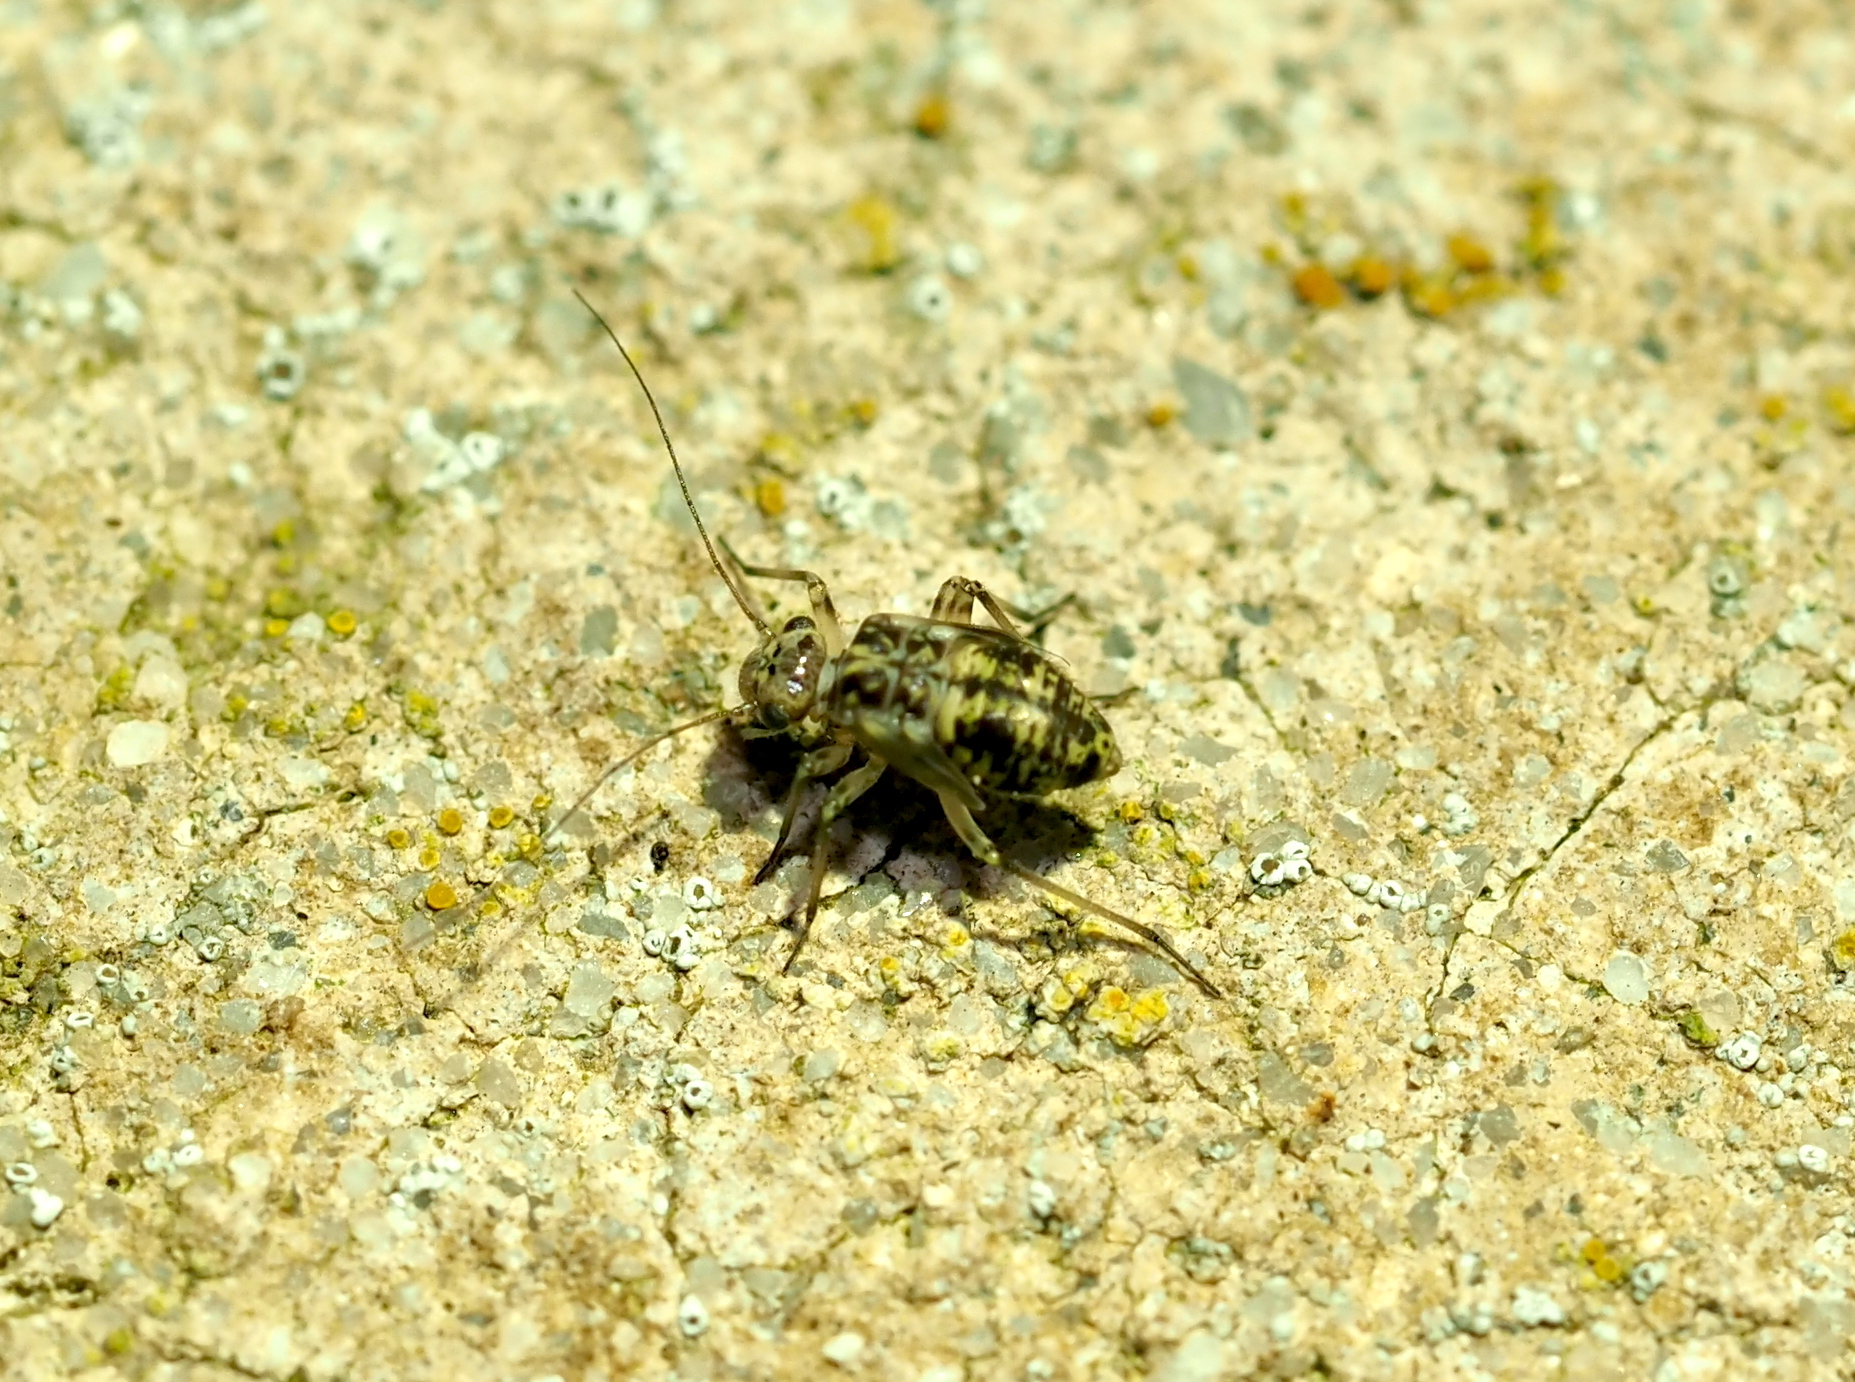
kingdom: Animalia
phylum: Arthropoda
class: Insecta
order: Psocodea
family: Psocidae
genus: Metylophorus
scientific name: Metylophorus novaescotiae
